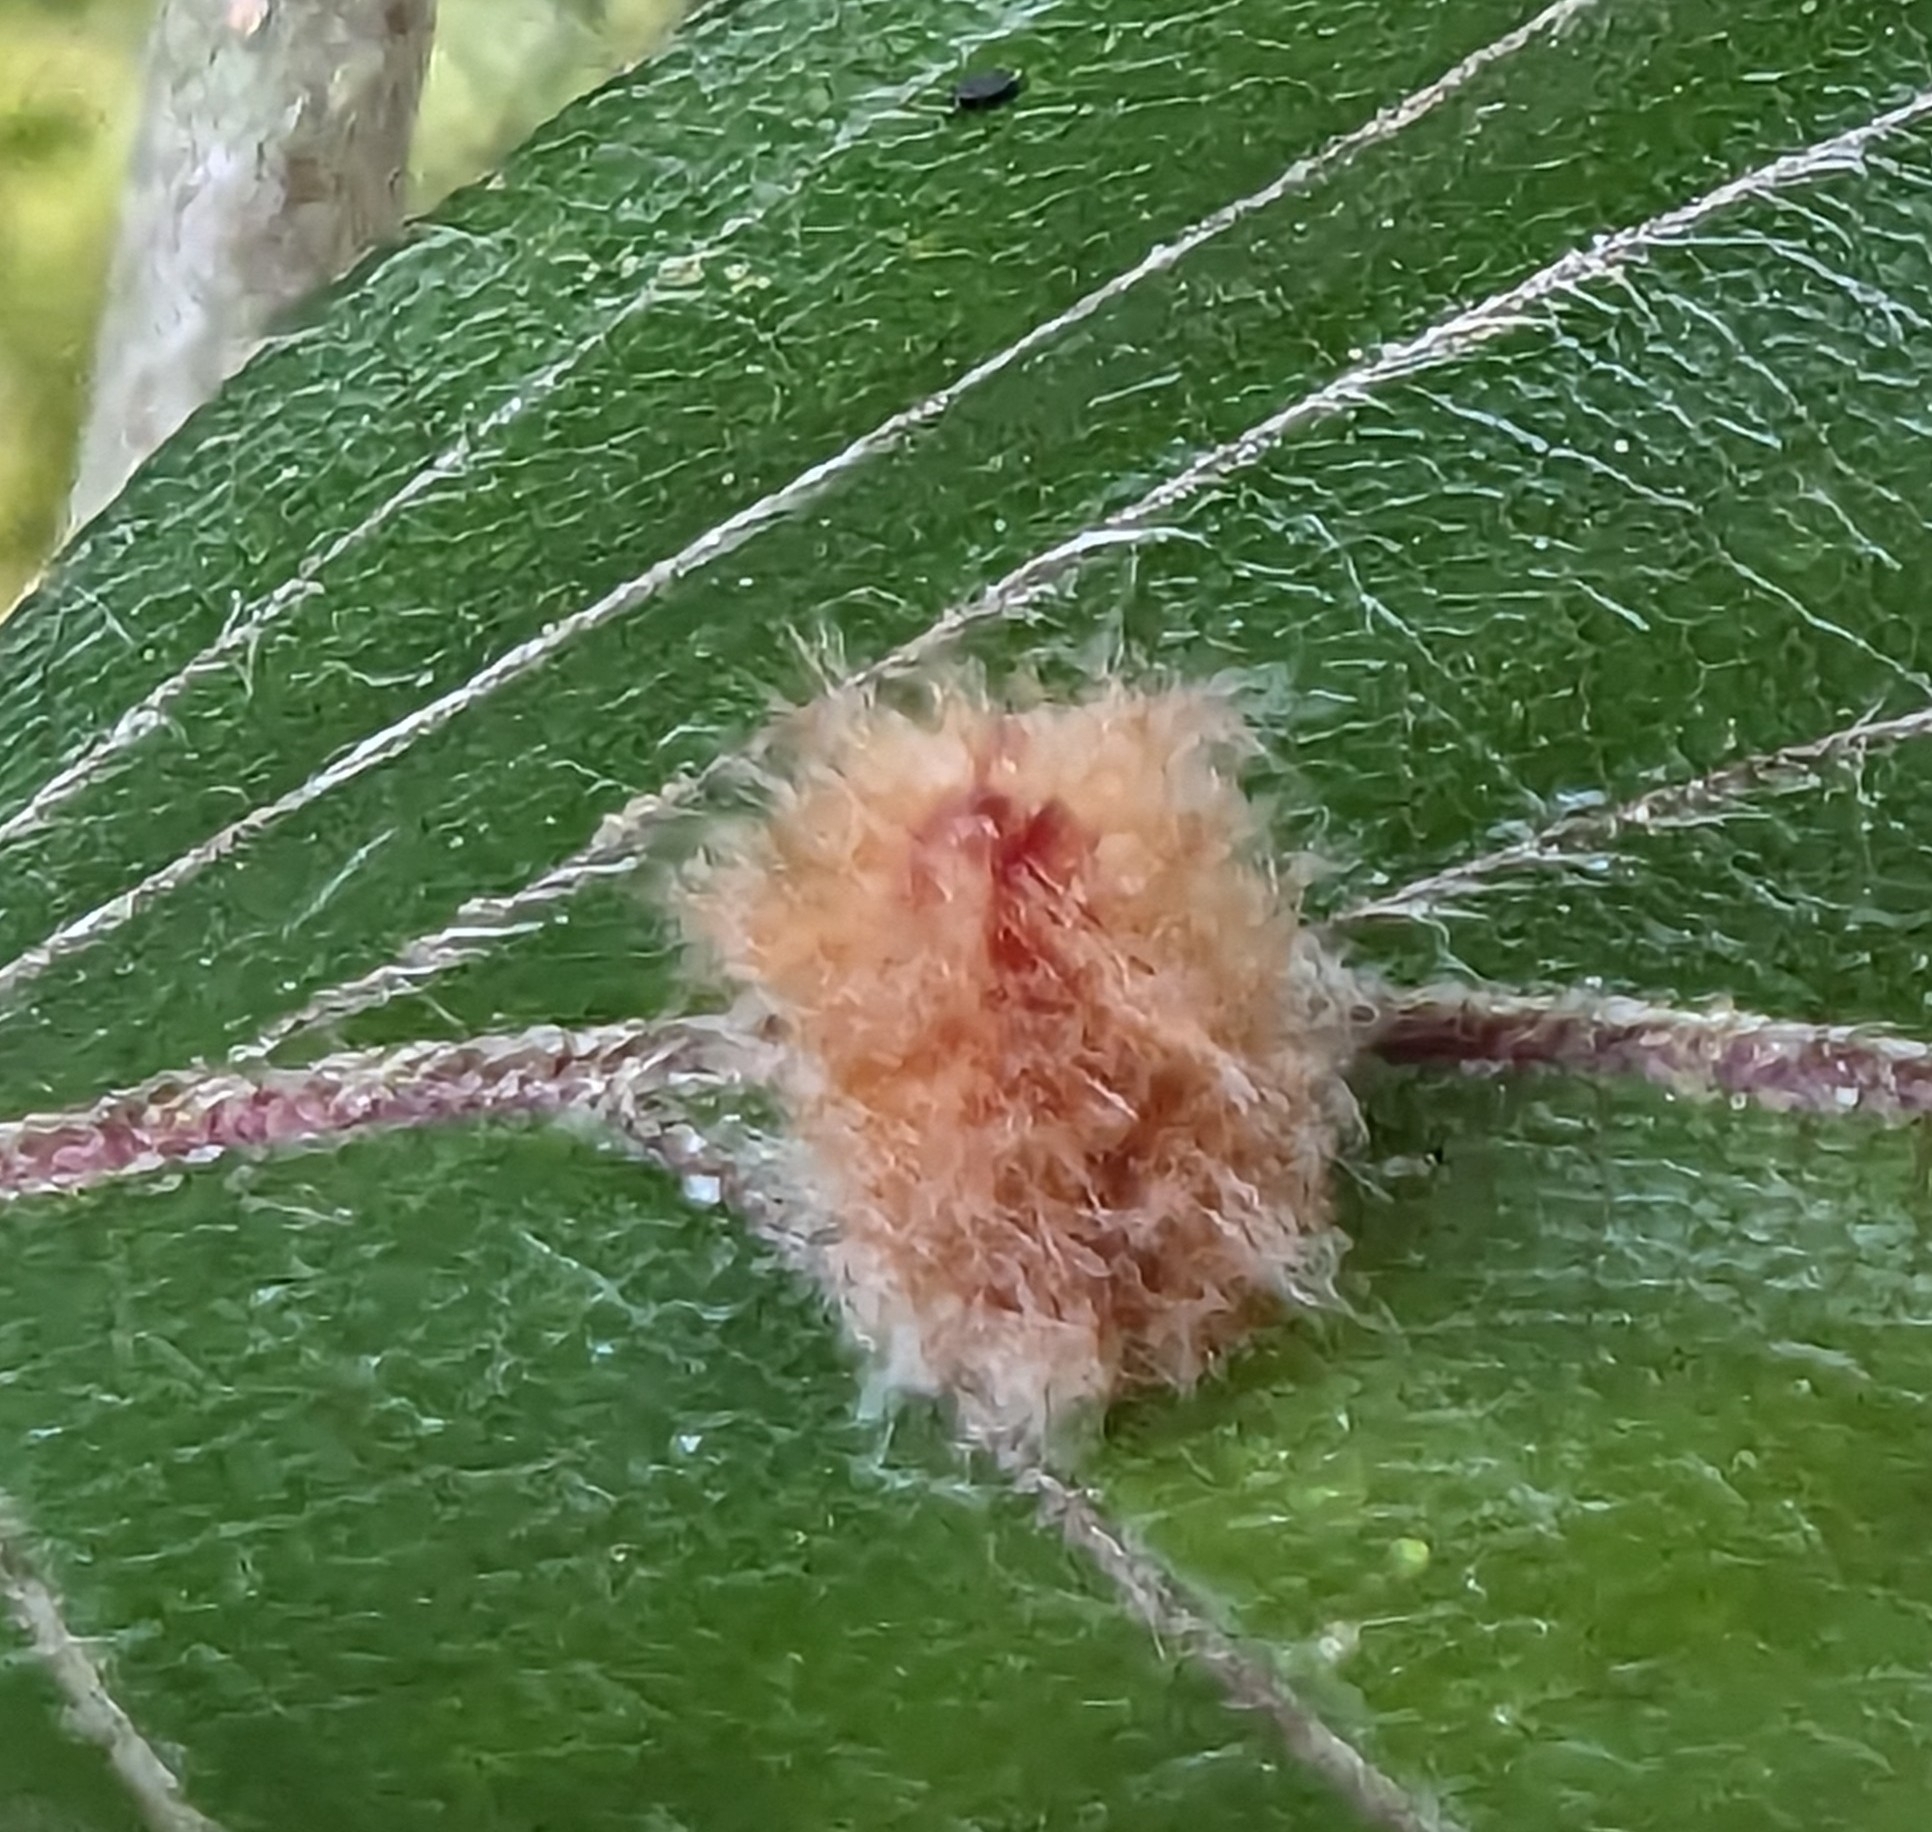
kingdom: Animalia
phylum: Arthropoda
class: Insecta
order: Diptera
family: Cecidomyiidae
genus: Hartigiola
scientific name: Hartigiola annulipes
